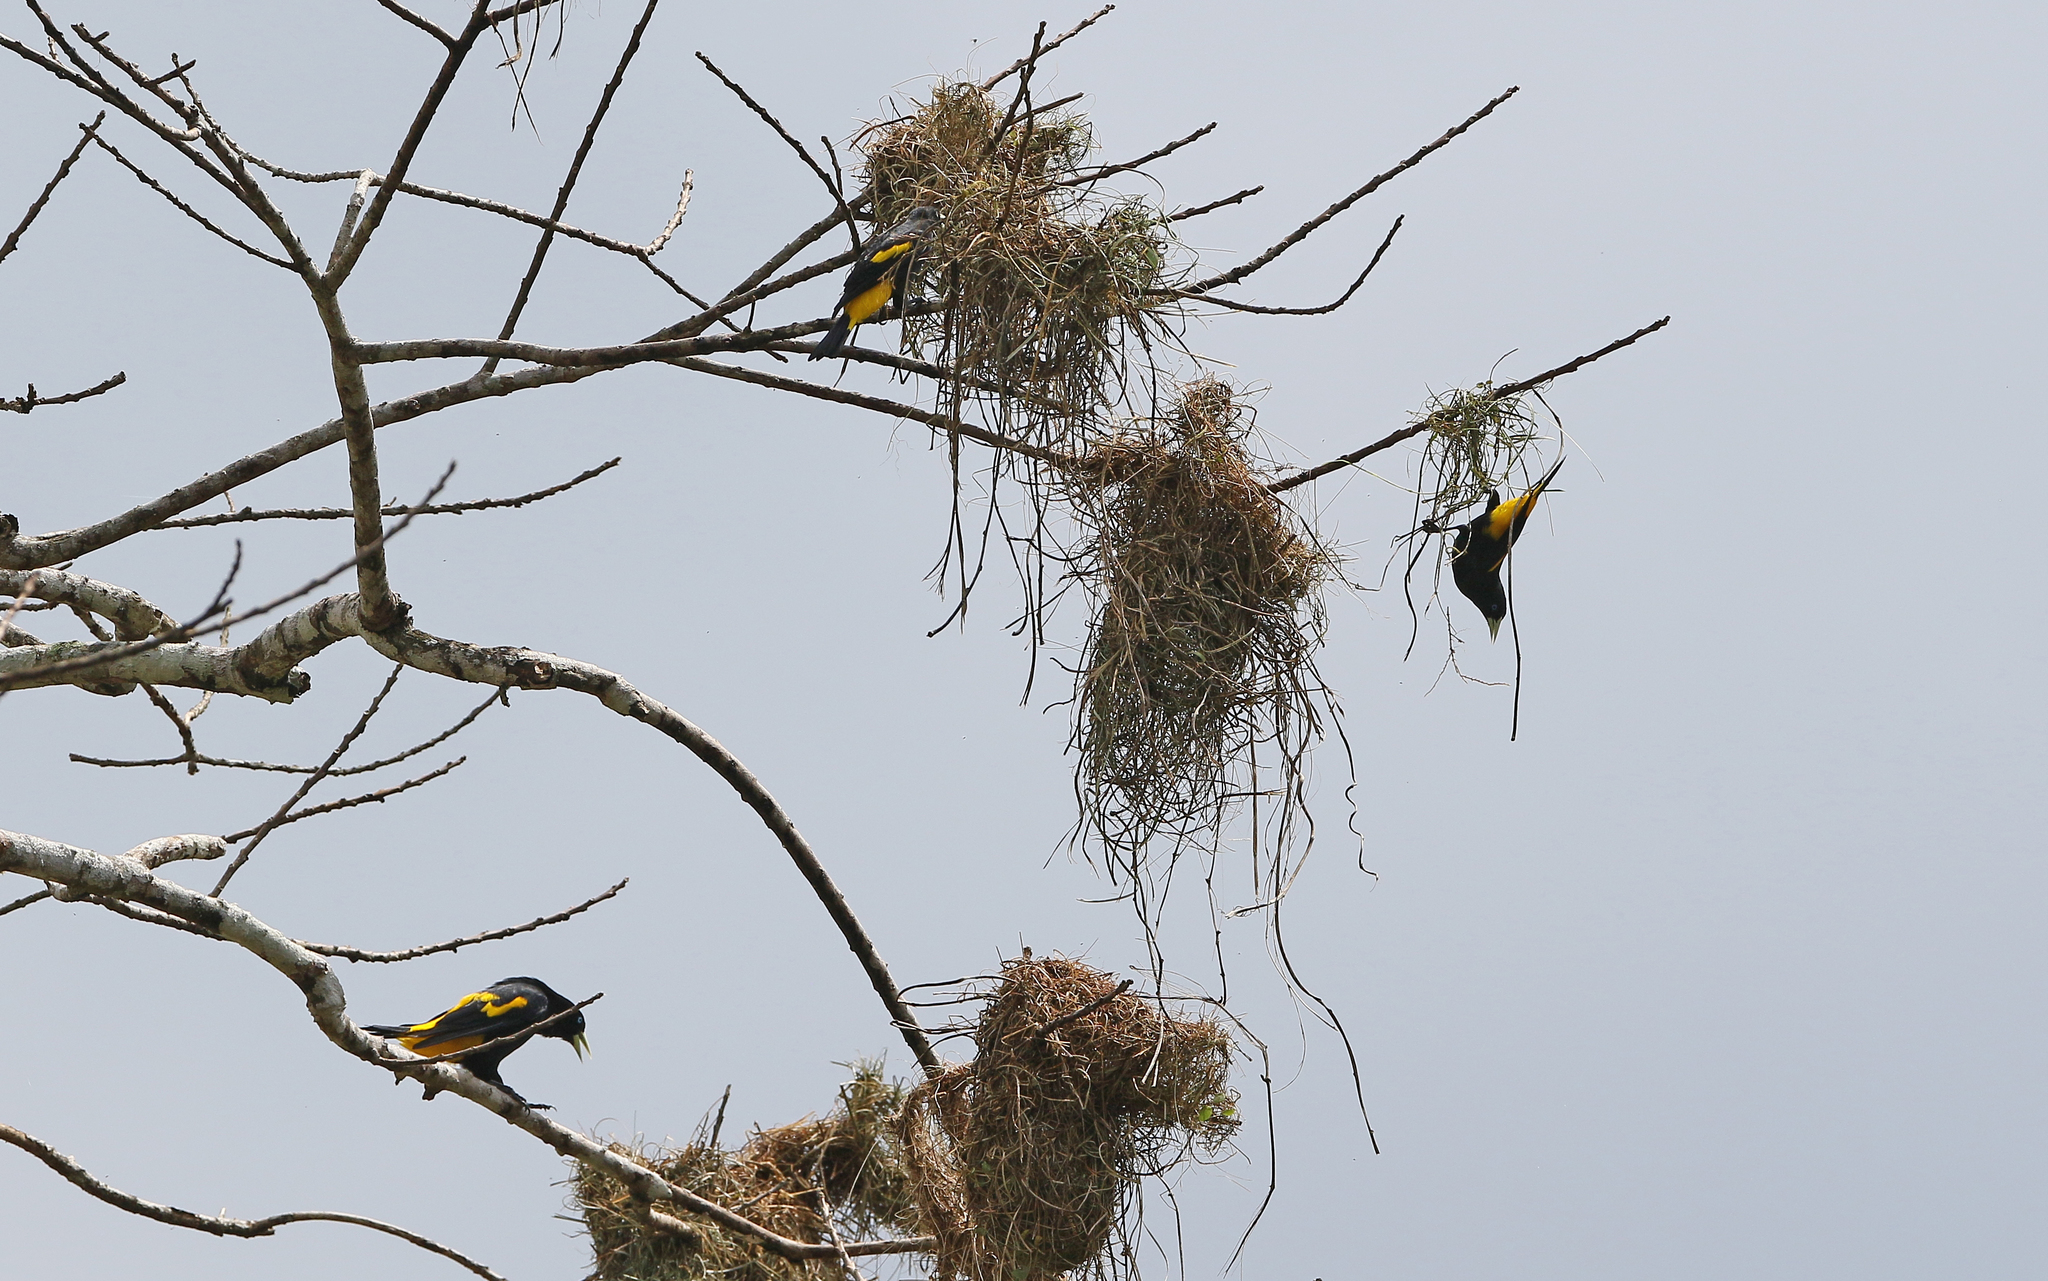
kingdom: Animalia
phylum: Chordata
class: Aves
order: Passeriformes
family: Icteridae
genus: Cacicus
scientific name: Cacicus cela
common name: Yellow-rumped cacique
